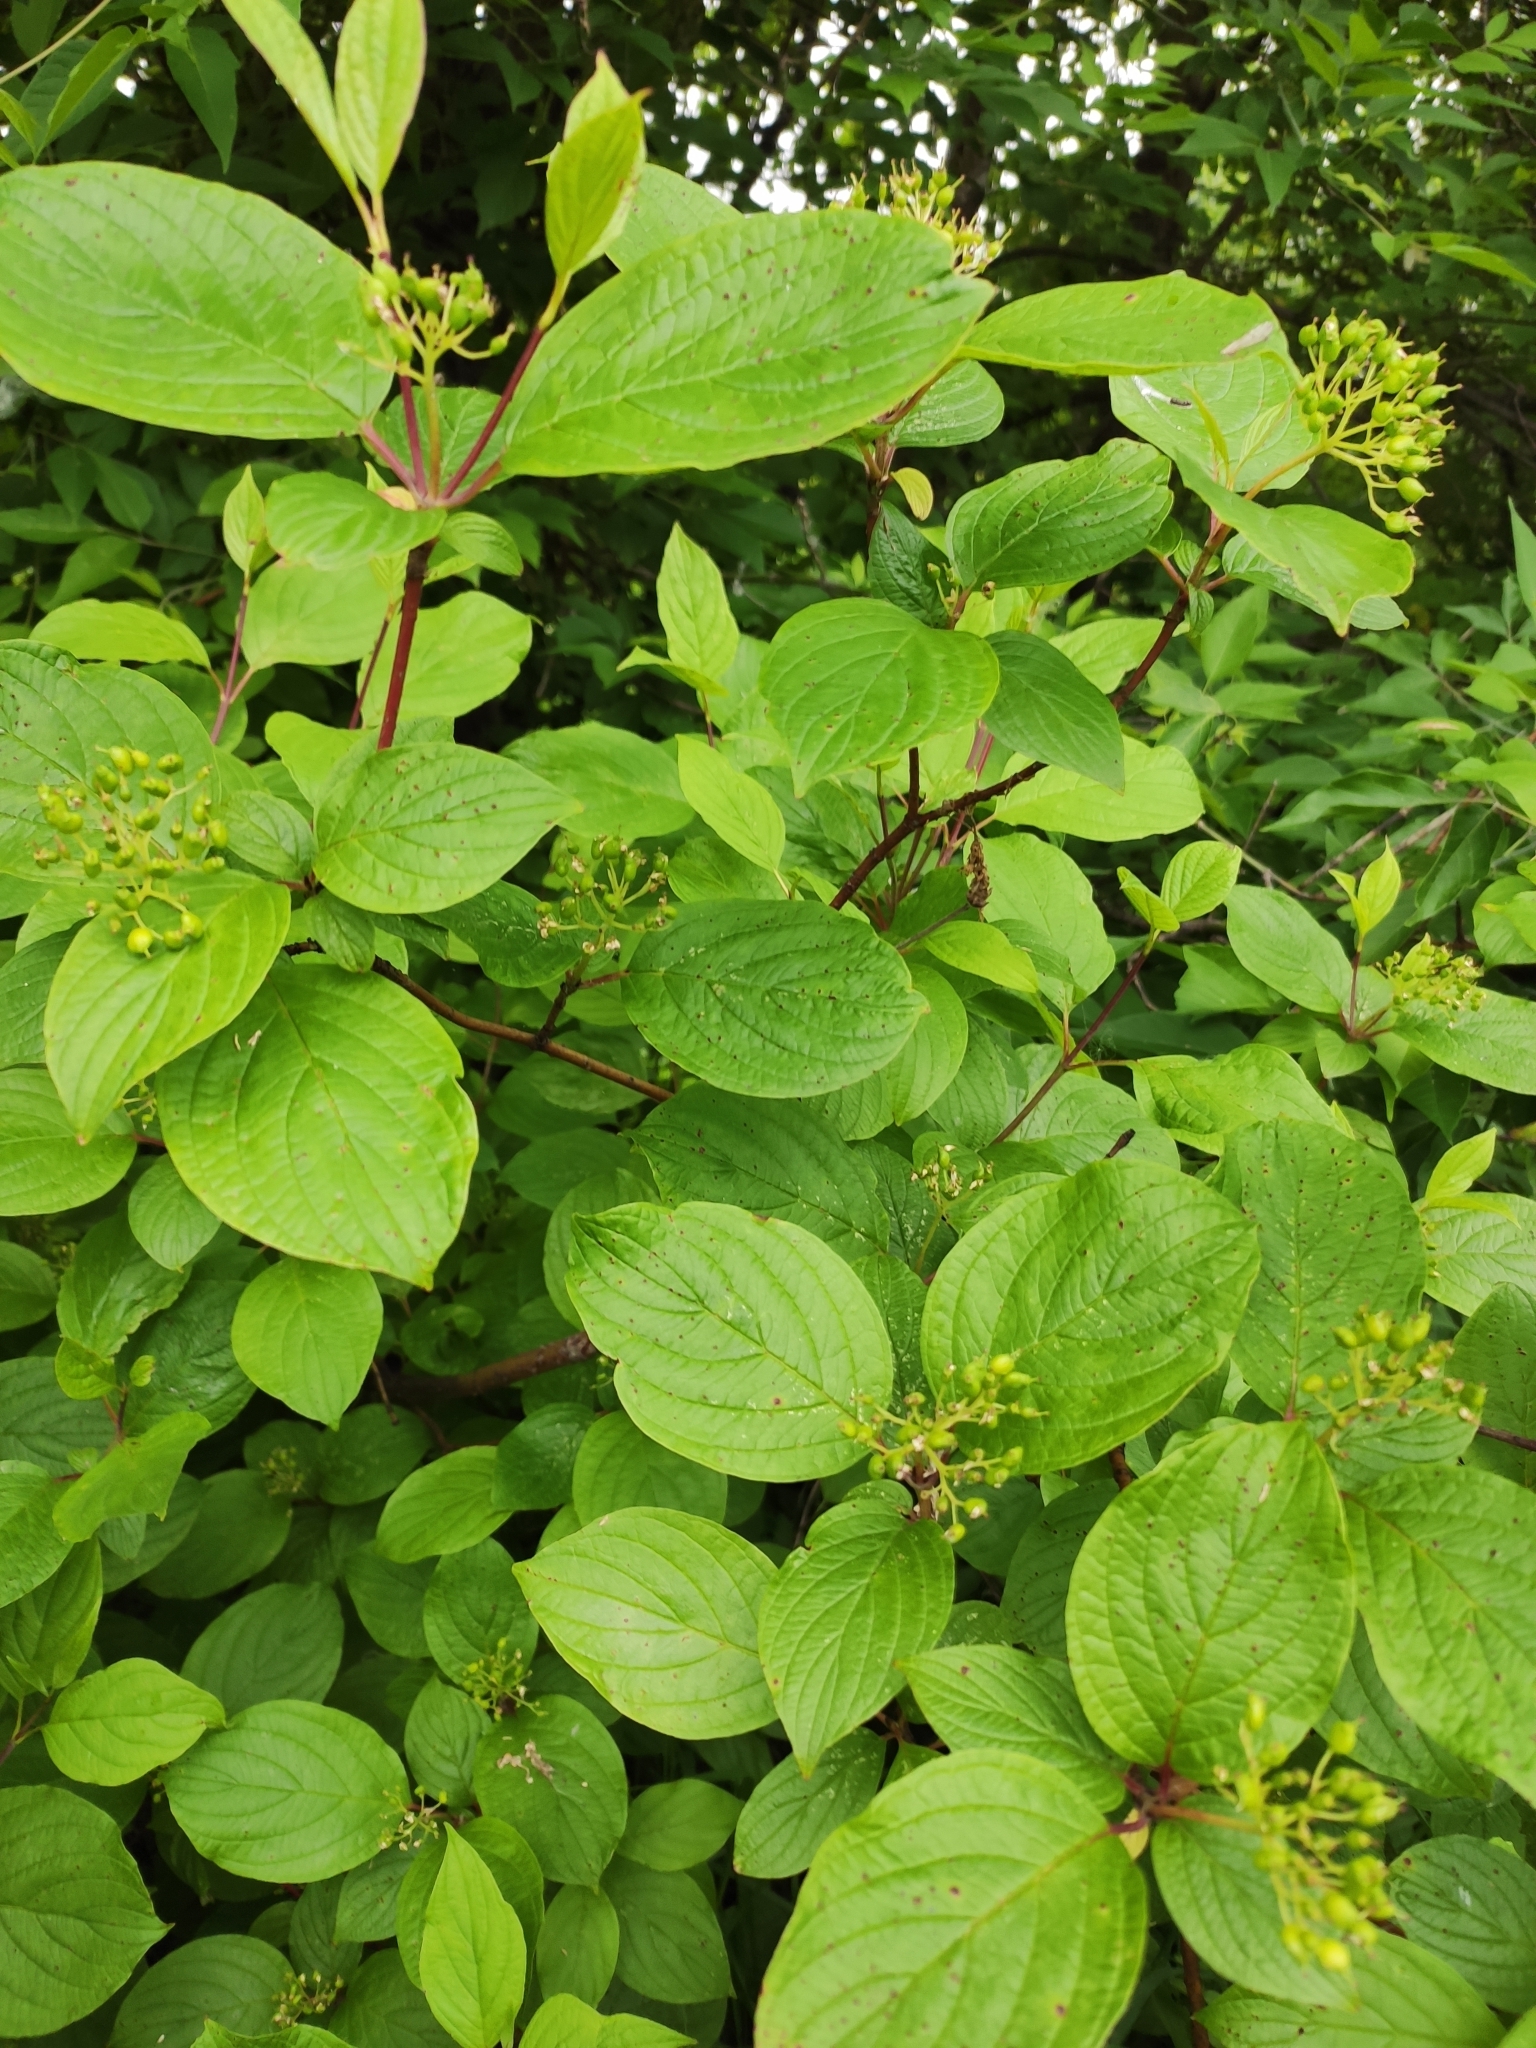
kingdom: Plantae
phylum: Tracheophyta
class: Magnoliopsida
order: Cornales
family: Cornaceae
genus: Cornus
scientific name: Cornus alba
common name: White dogwood
